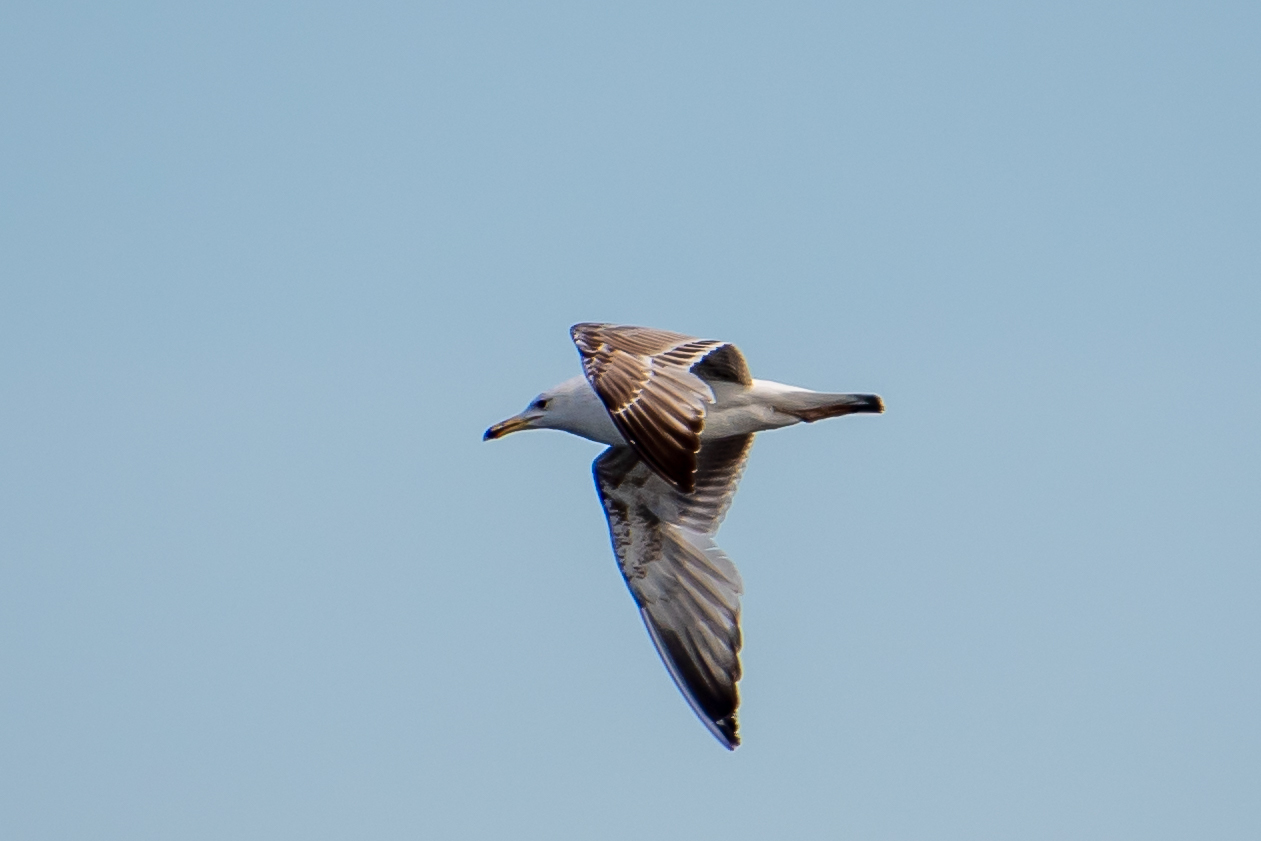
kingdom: Animalia
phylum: Chordata
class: Aves
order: Charadriiformes
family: Laridae
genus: Larus
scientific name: Larus cachinnans
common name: Caspian gull
